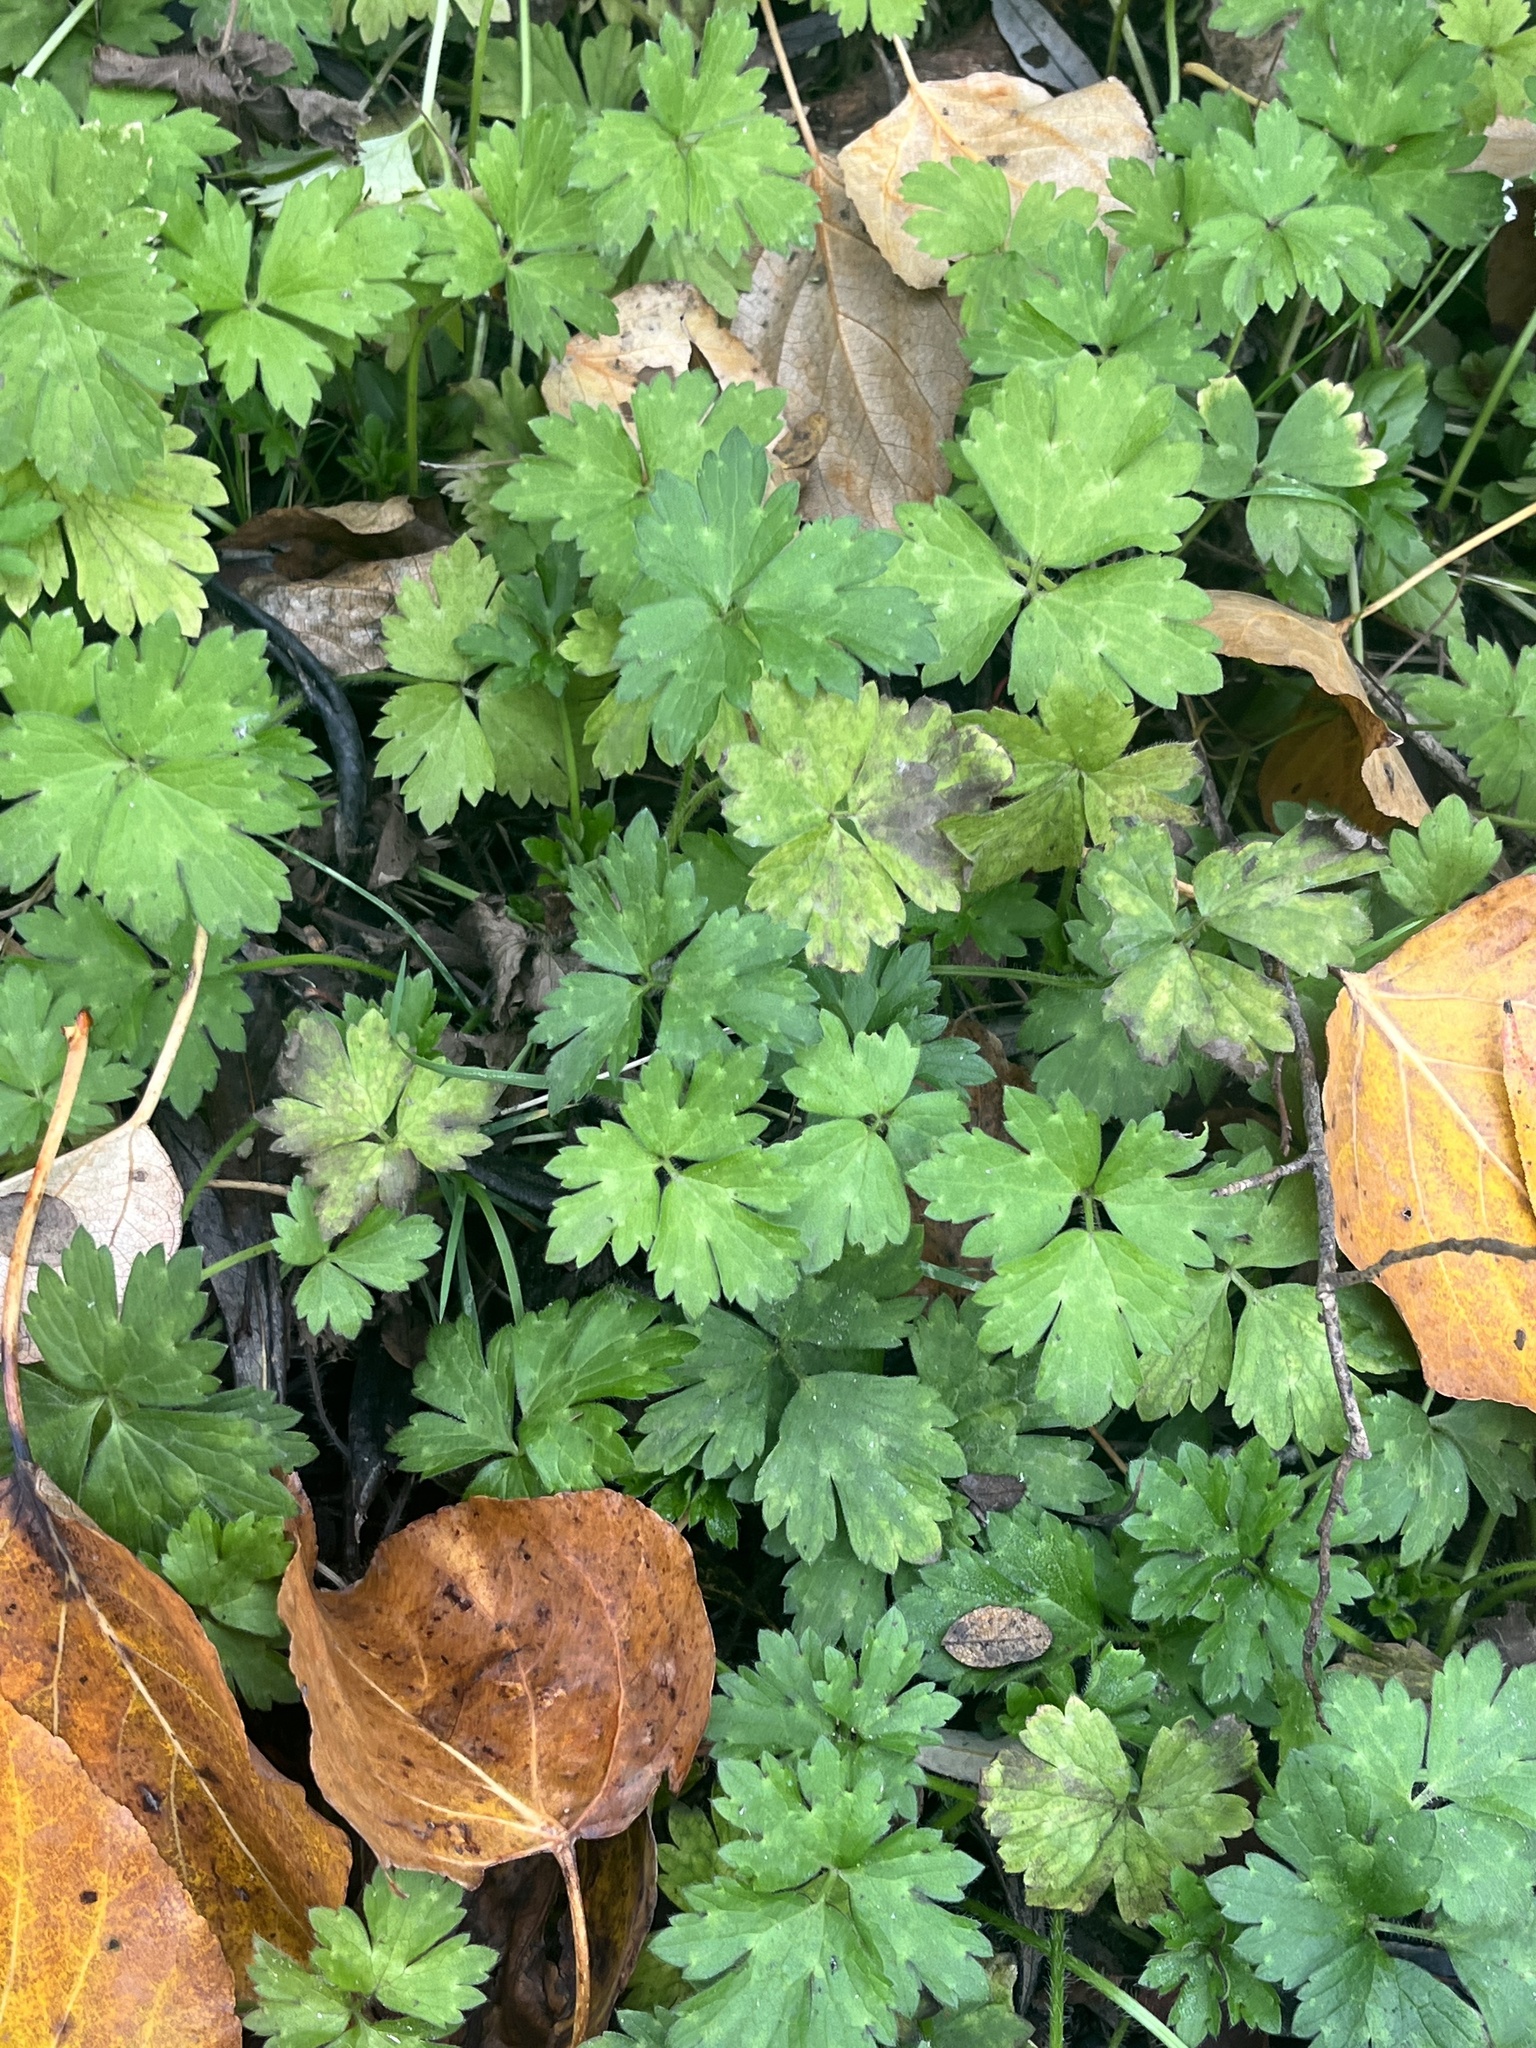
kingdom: Plantae
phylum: Tracheophyta
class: Magnoliopsida
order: Ranunculales
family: Ranunculaceae
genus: Ranunculus
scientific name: Ranunculus repens
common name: Creeping buttercup
